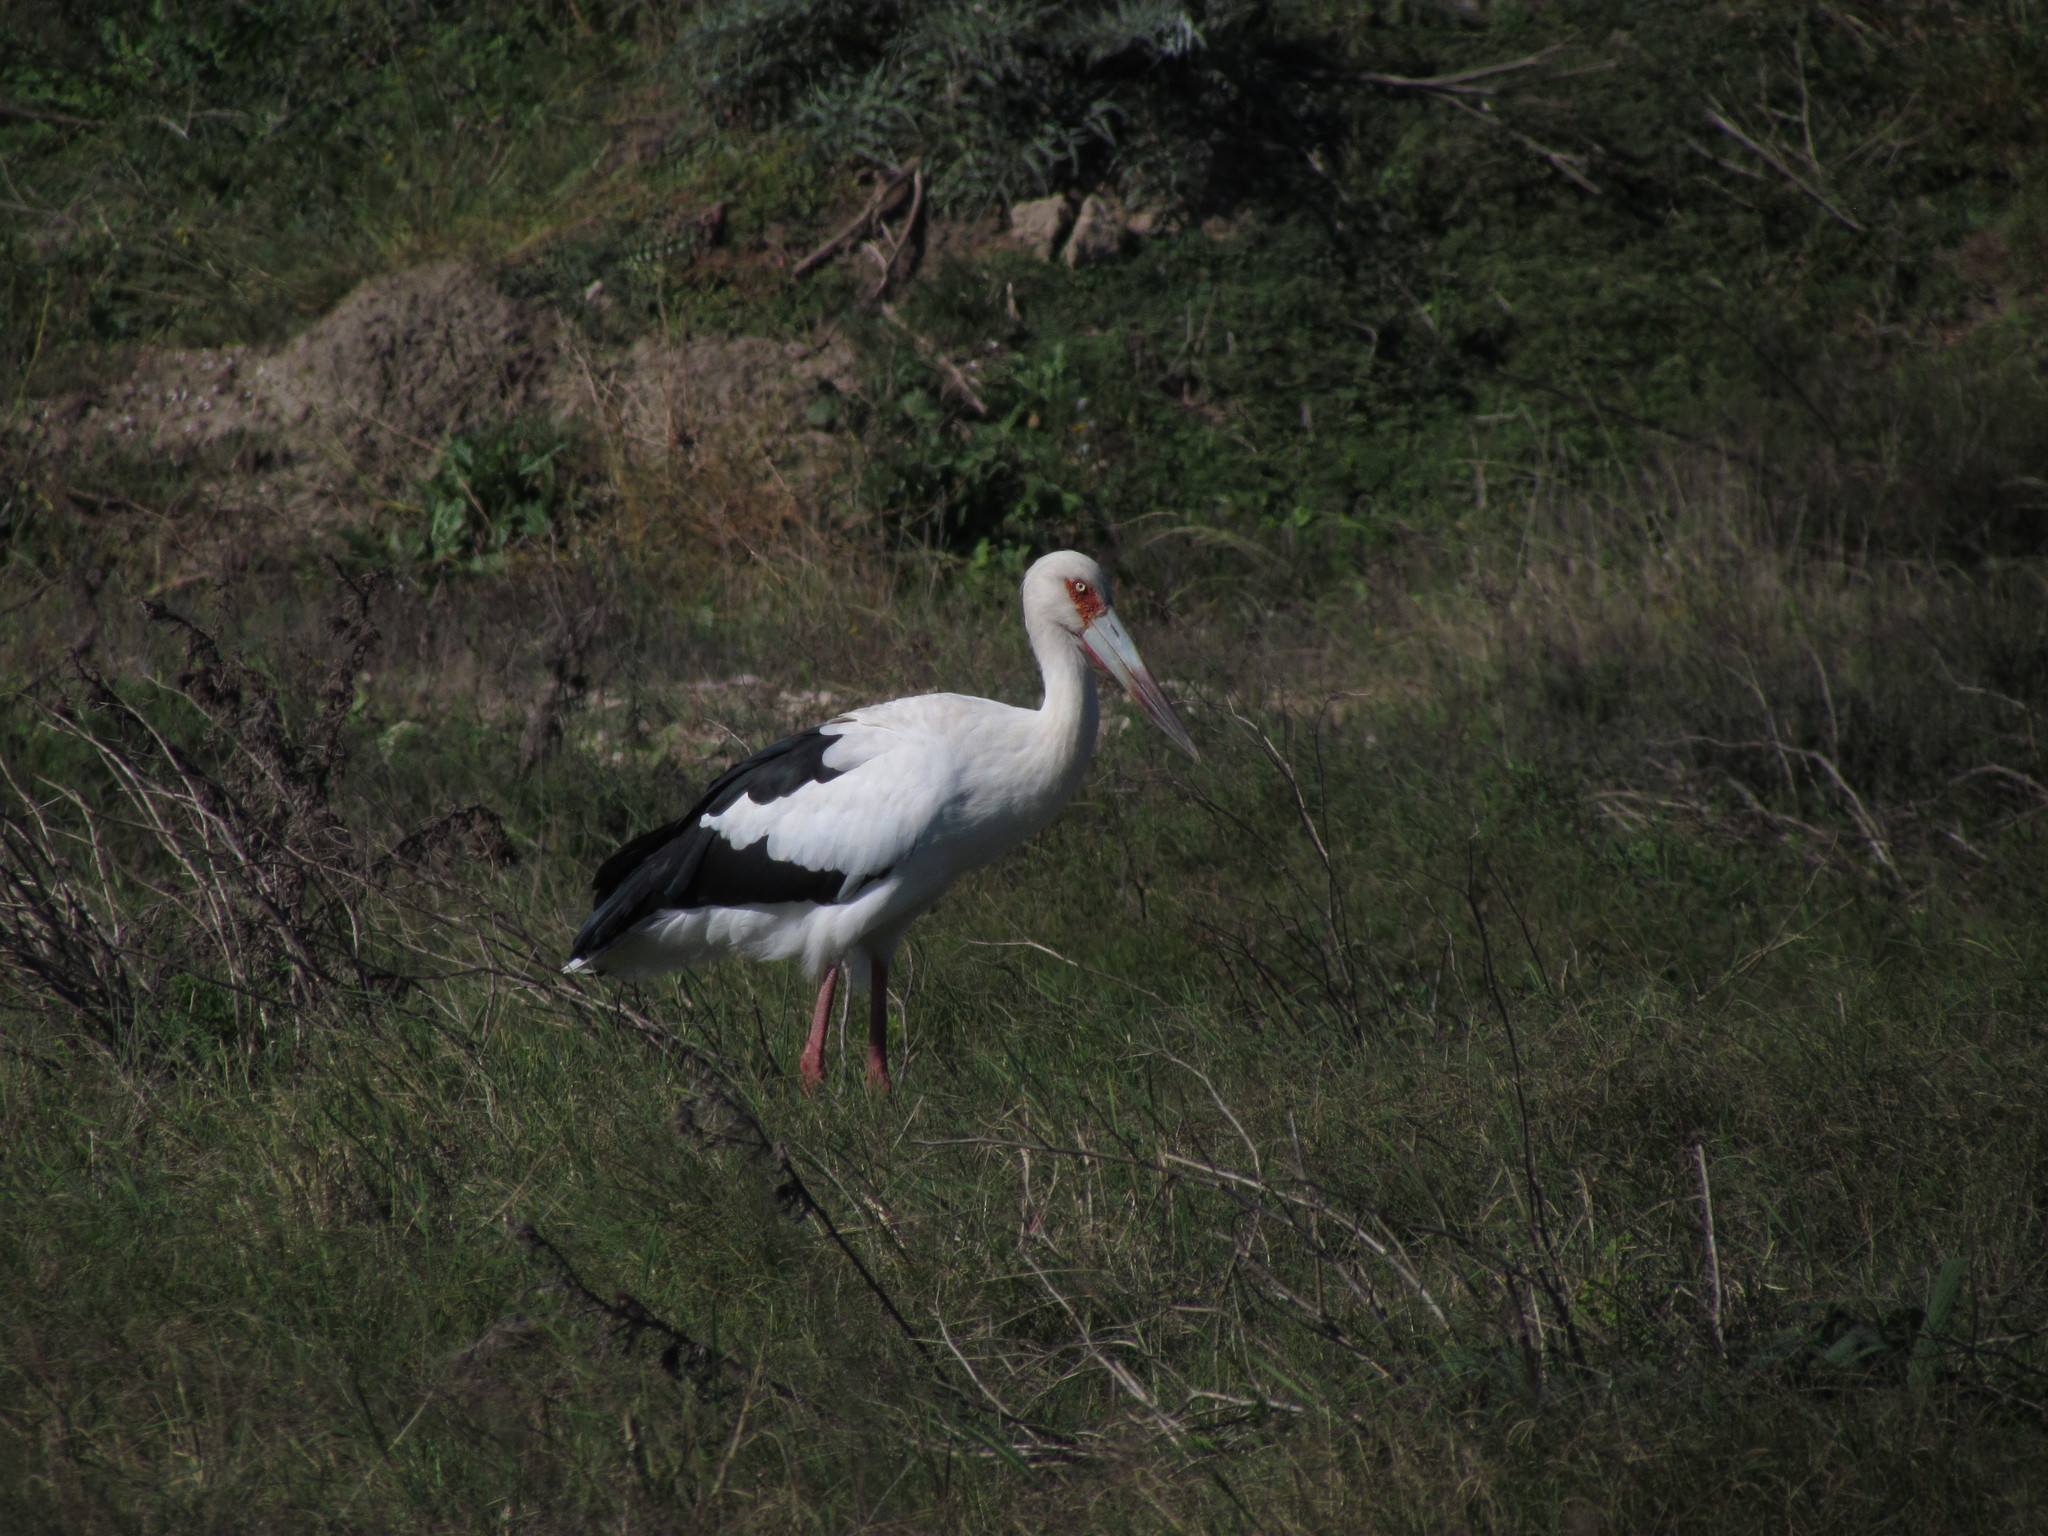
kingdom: Animalia
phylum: Chordata
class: Aves
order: Ciconiiformes
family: Ciconiidae
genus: Ciconia
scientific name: Ciconia maguari
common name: Maguari stork
